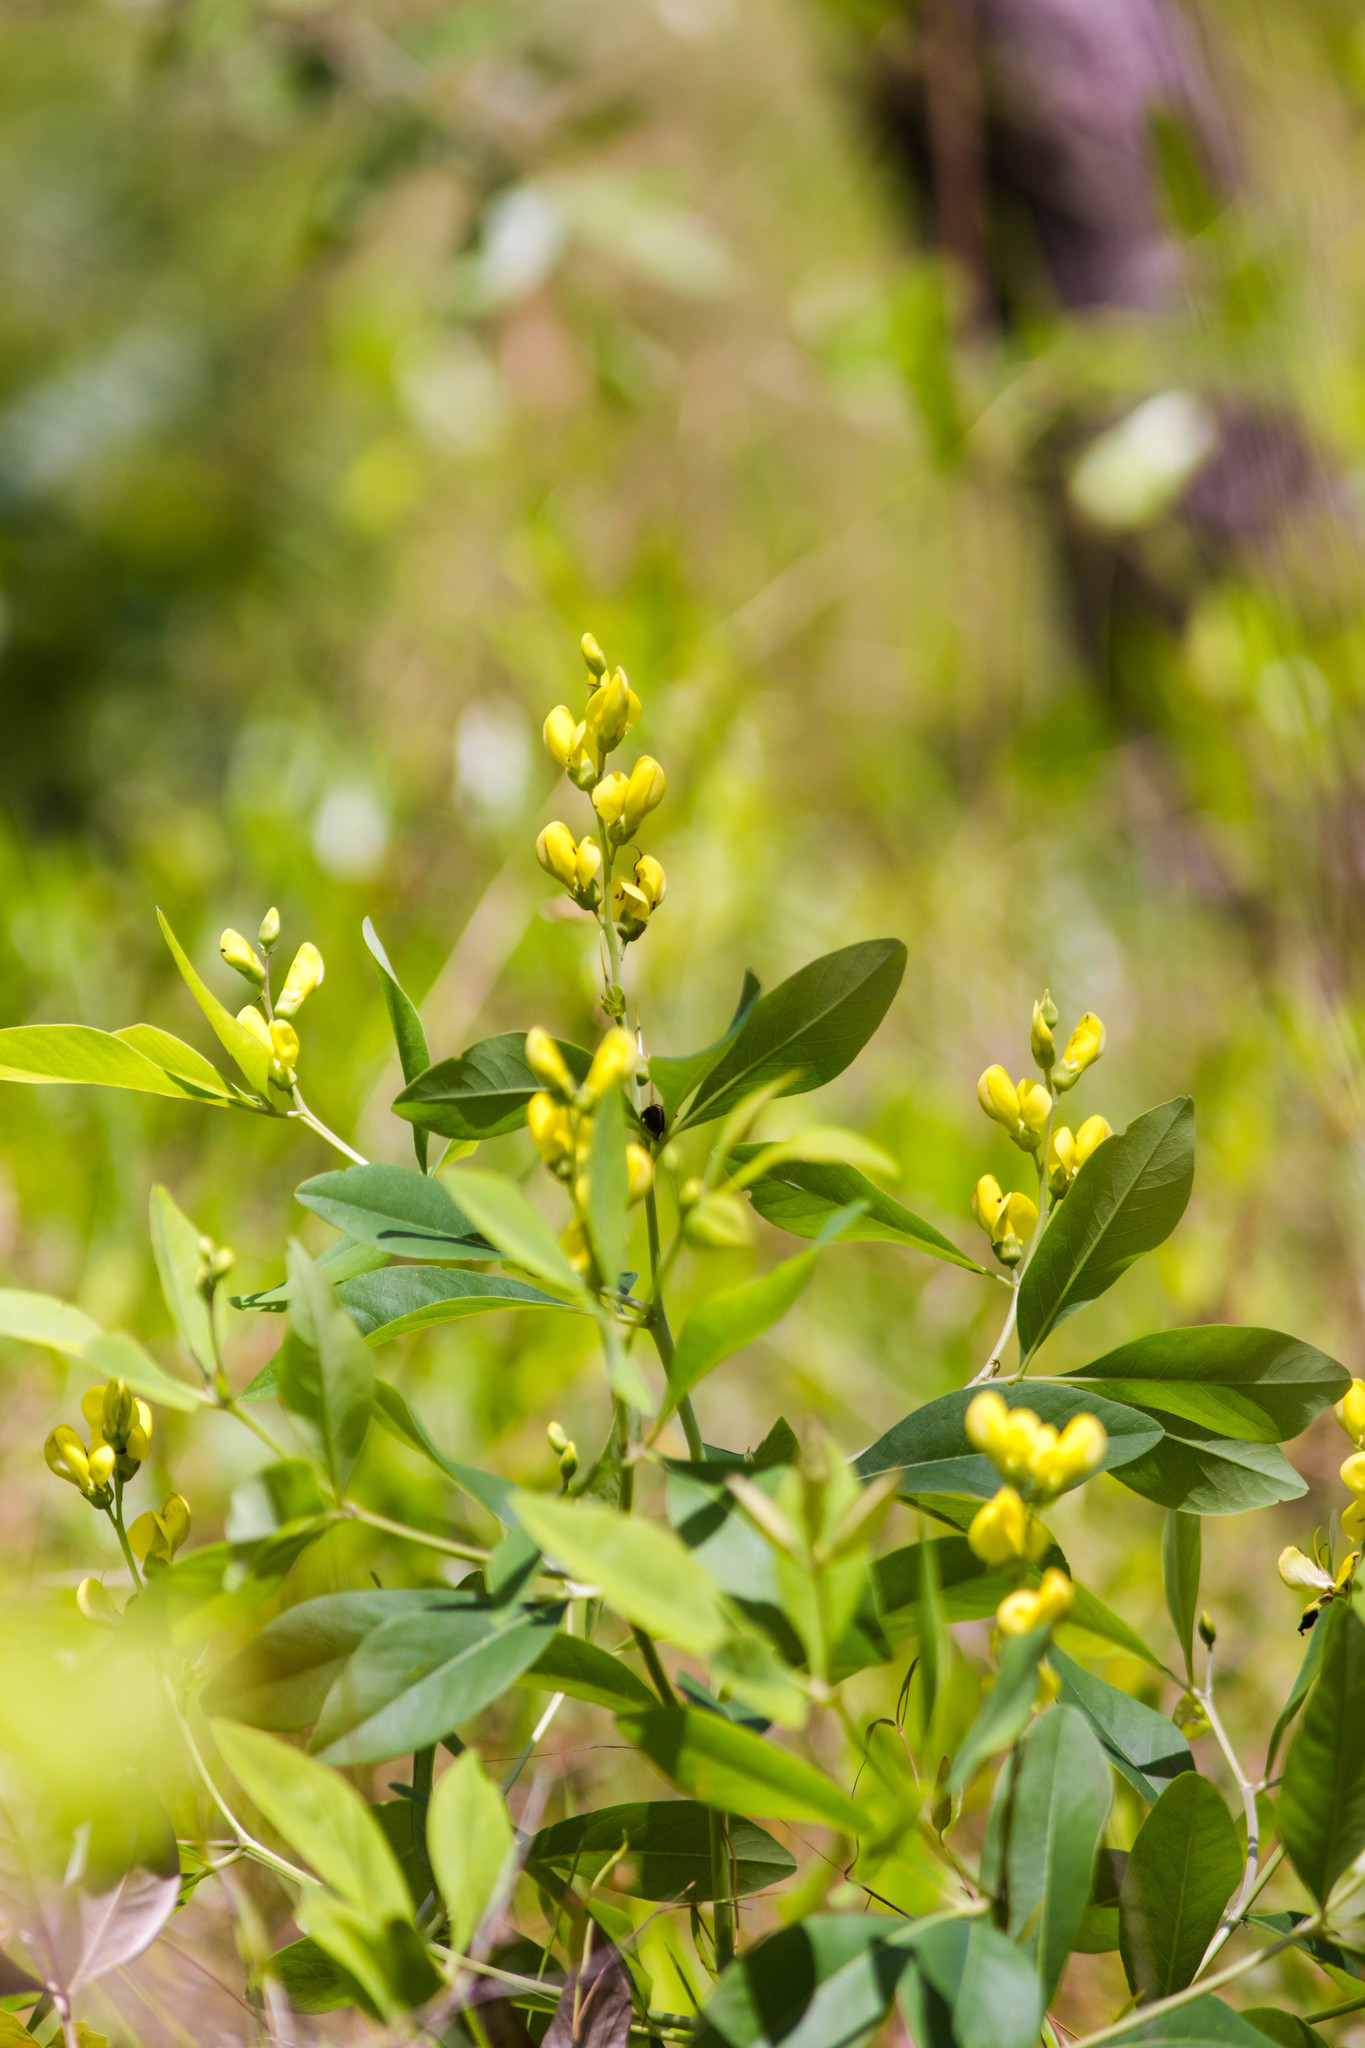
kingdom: Plantae
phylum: Tracheophyta
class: Magnoliopsida
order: Fabales
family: Fabaceae
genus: Baptisia
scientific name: Baptisia lanceolata
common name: Gopherweed
